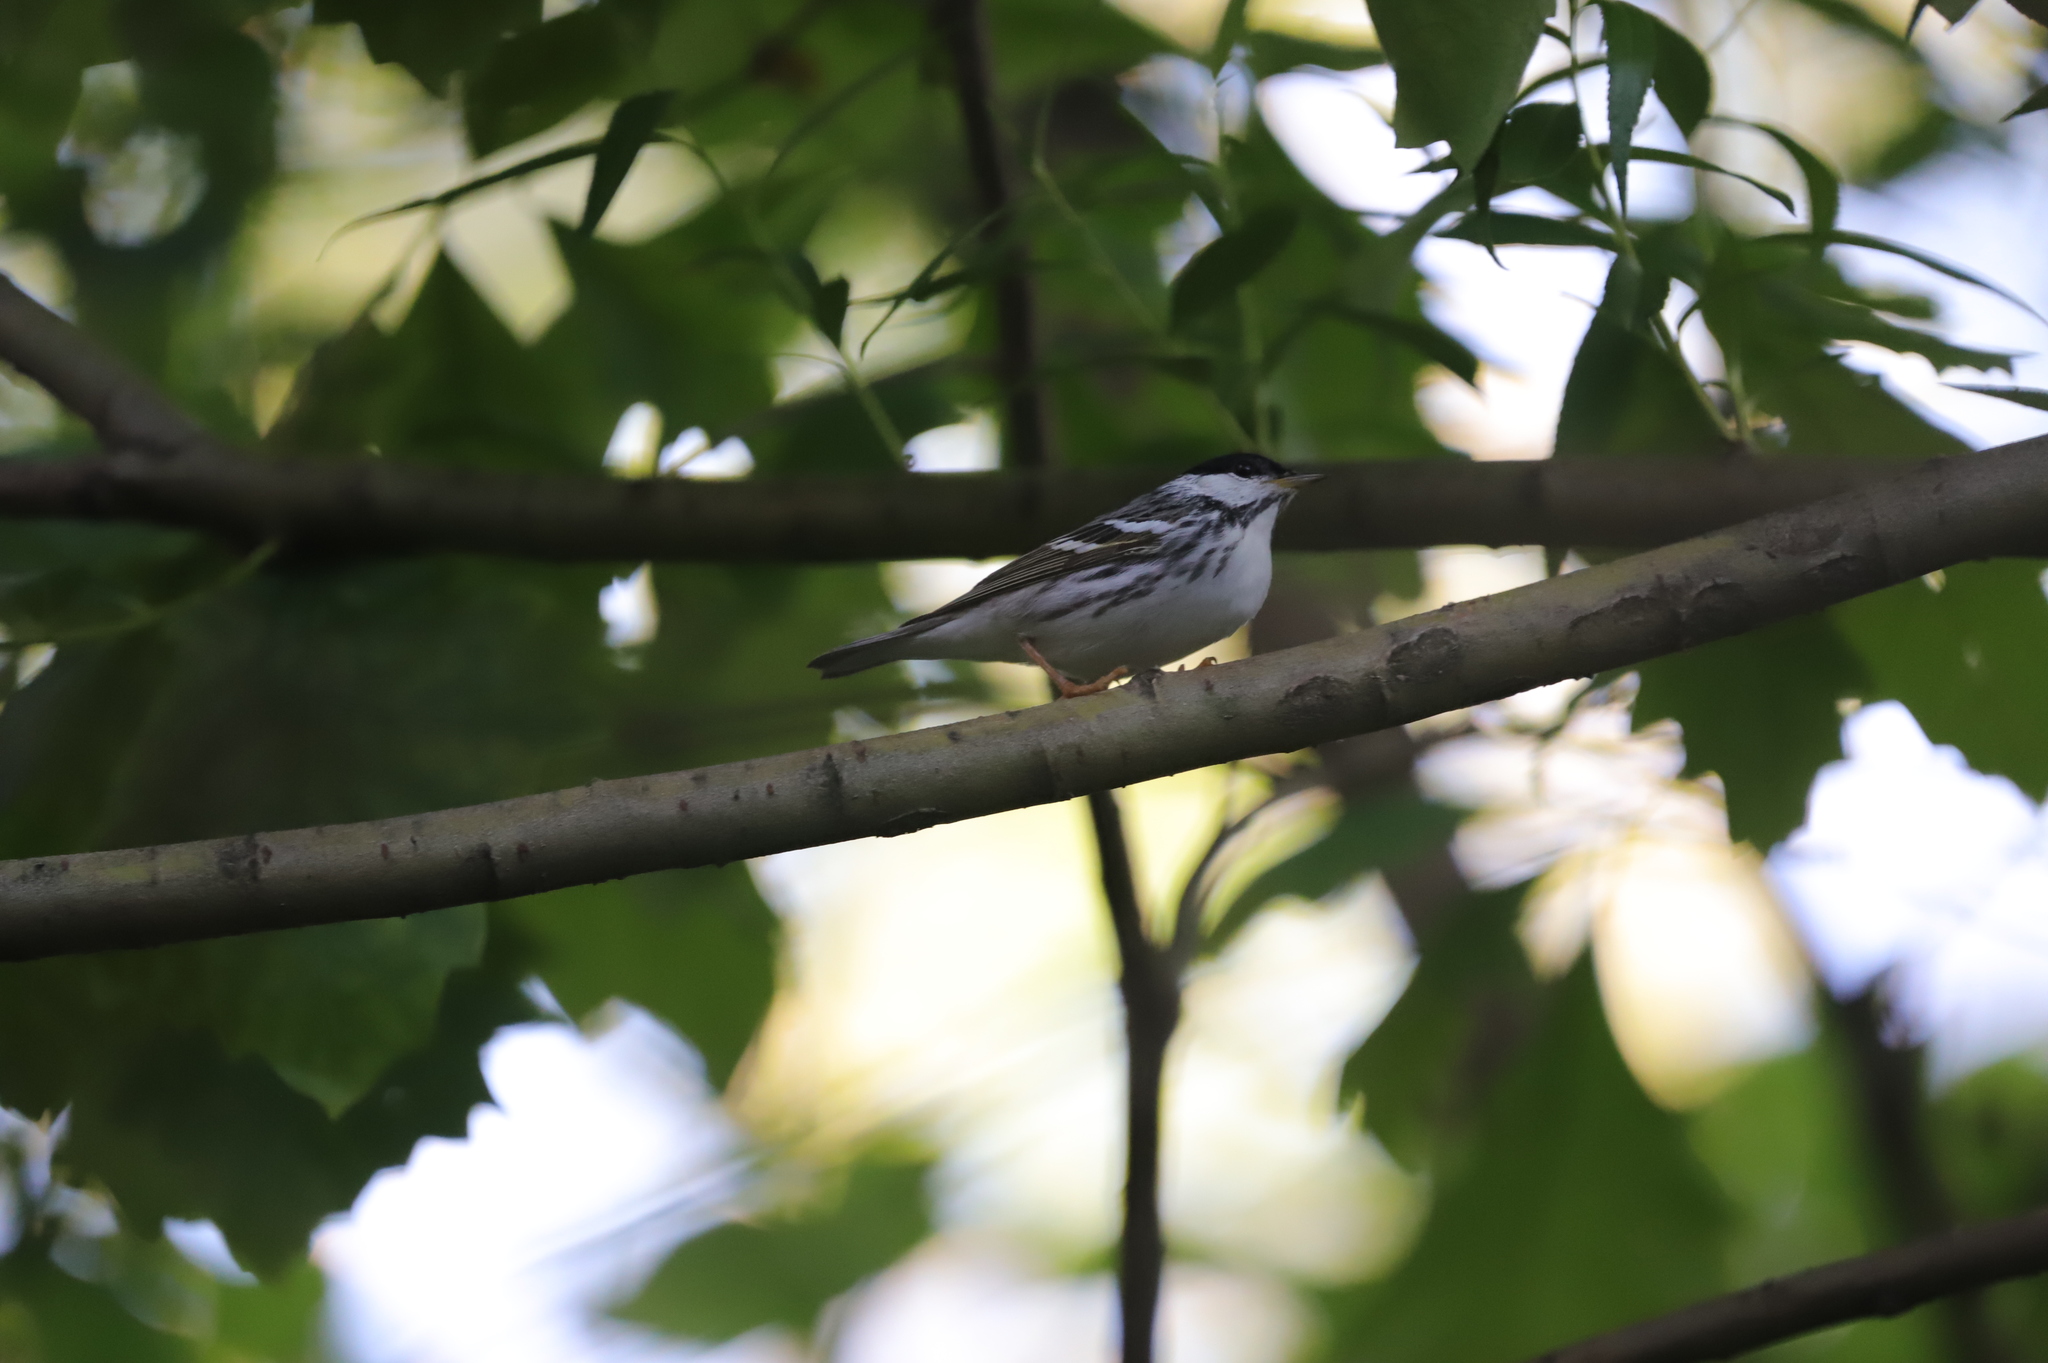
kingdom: Animalia
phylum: Chordata
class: Aves
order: Passeriformes
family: Parulidae
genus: Setophaga
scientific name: Setophaga striata
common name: Blackpoll warbler
